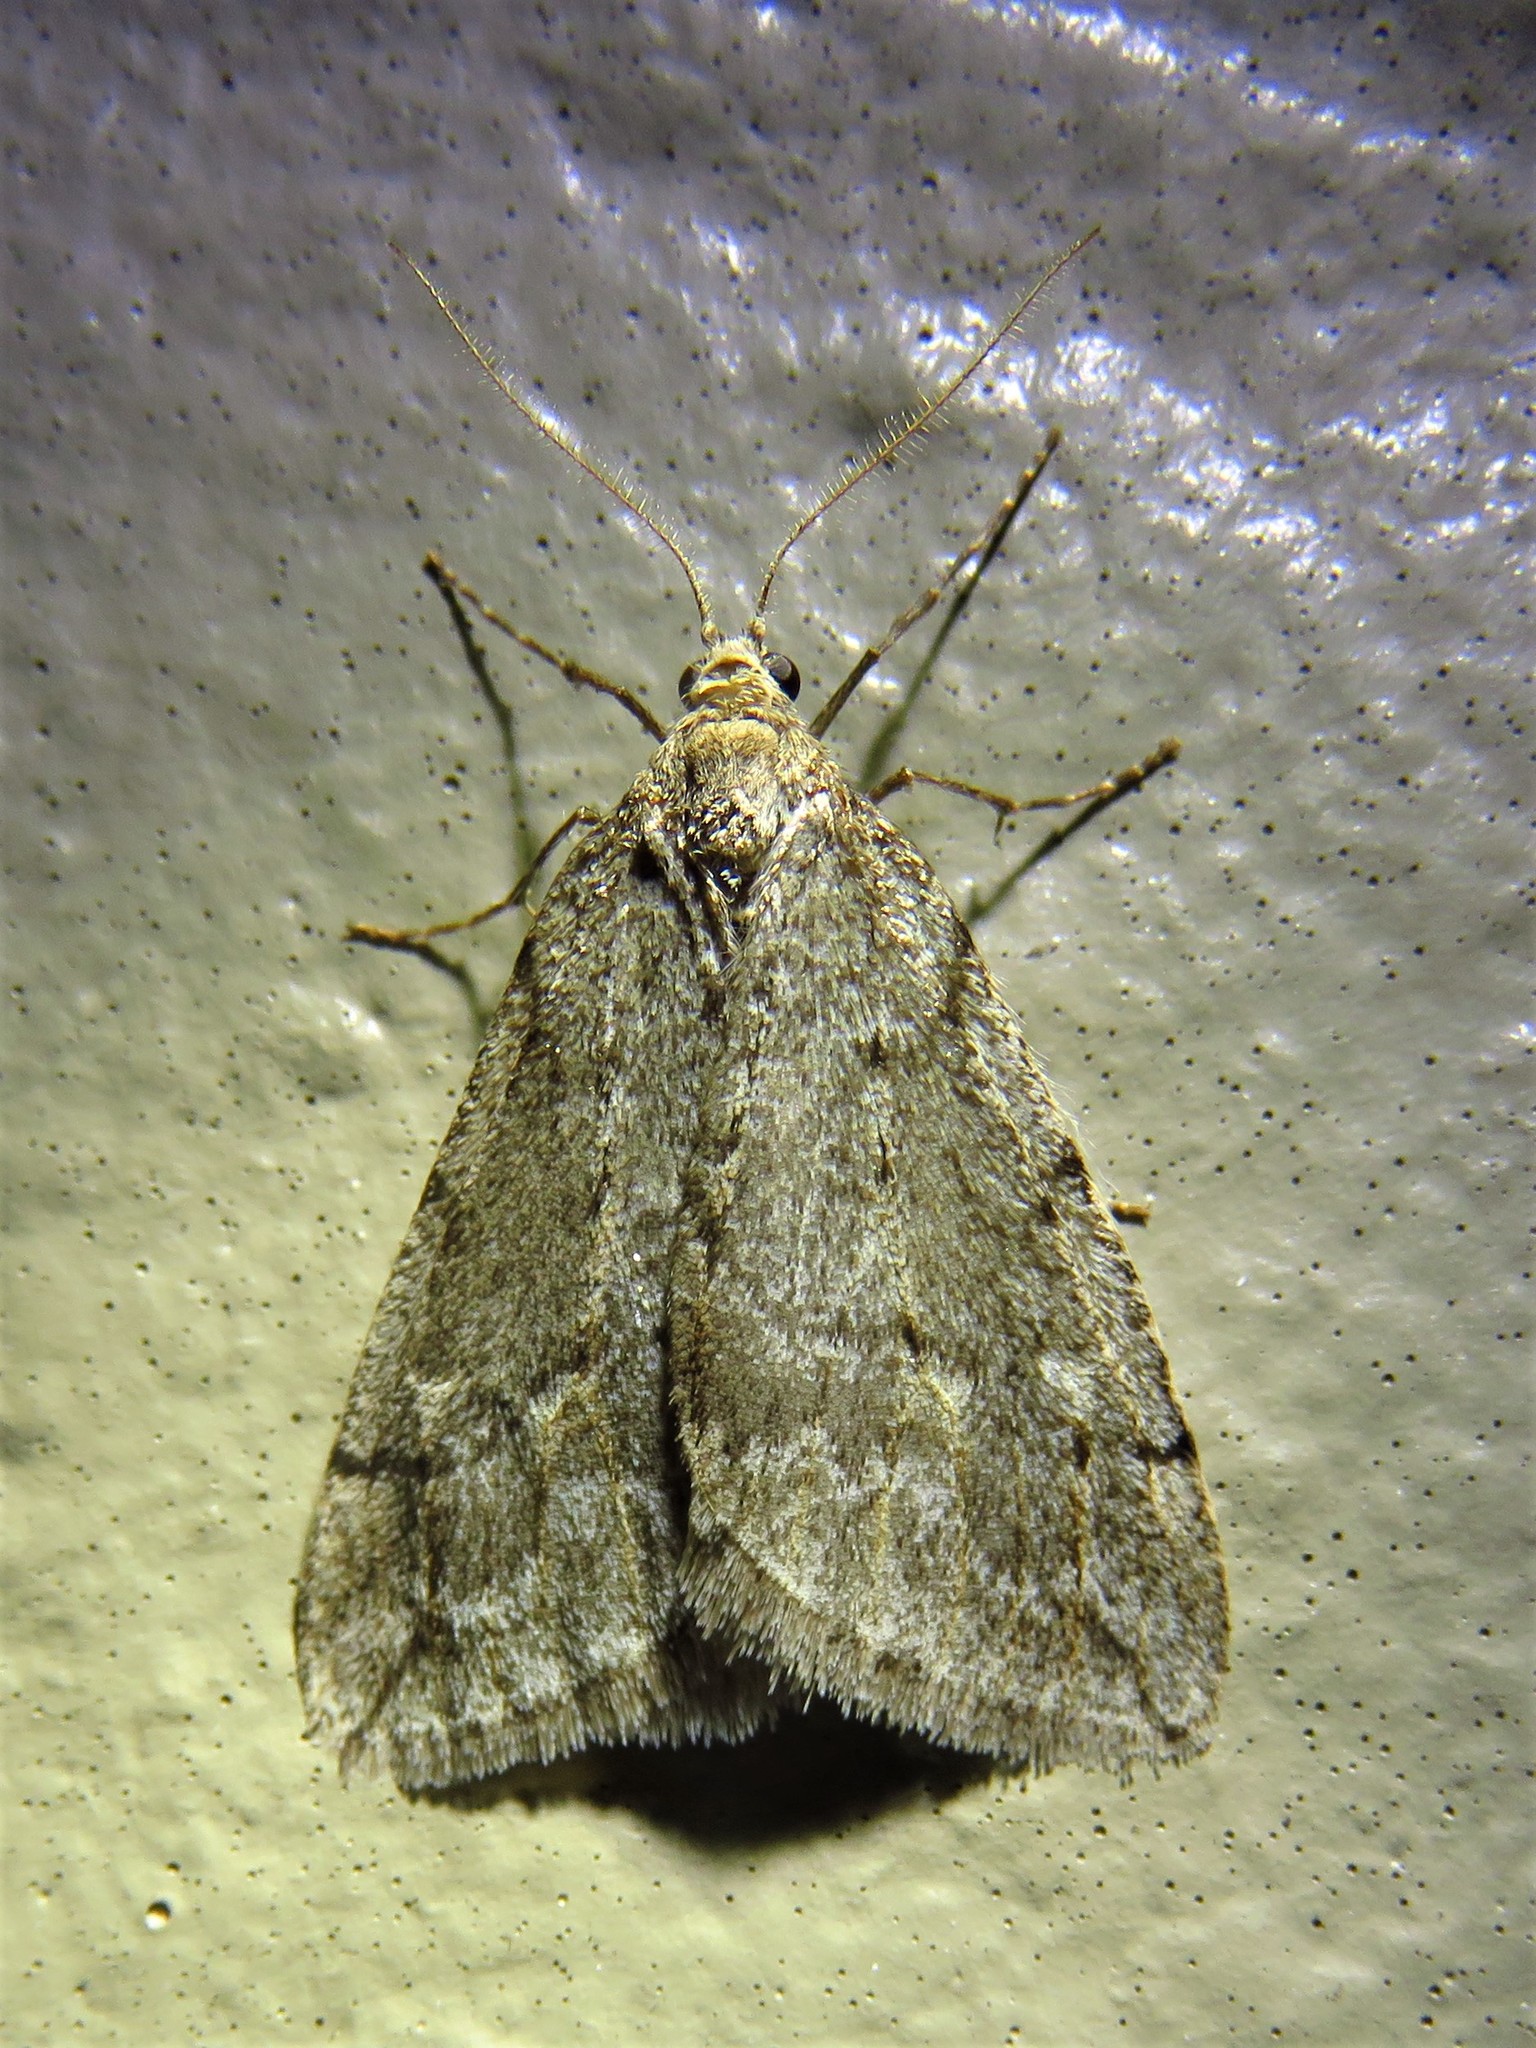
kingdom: Animalia
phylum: Arthropoda
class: Insecta
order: Lepidoptera
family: Geometridae
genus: Paleacrita
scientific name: Paleacrita vernata
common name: Spring cankerworm
